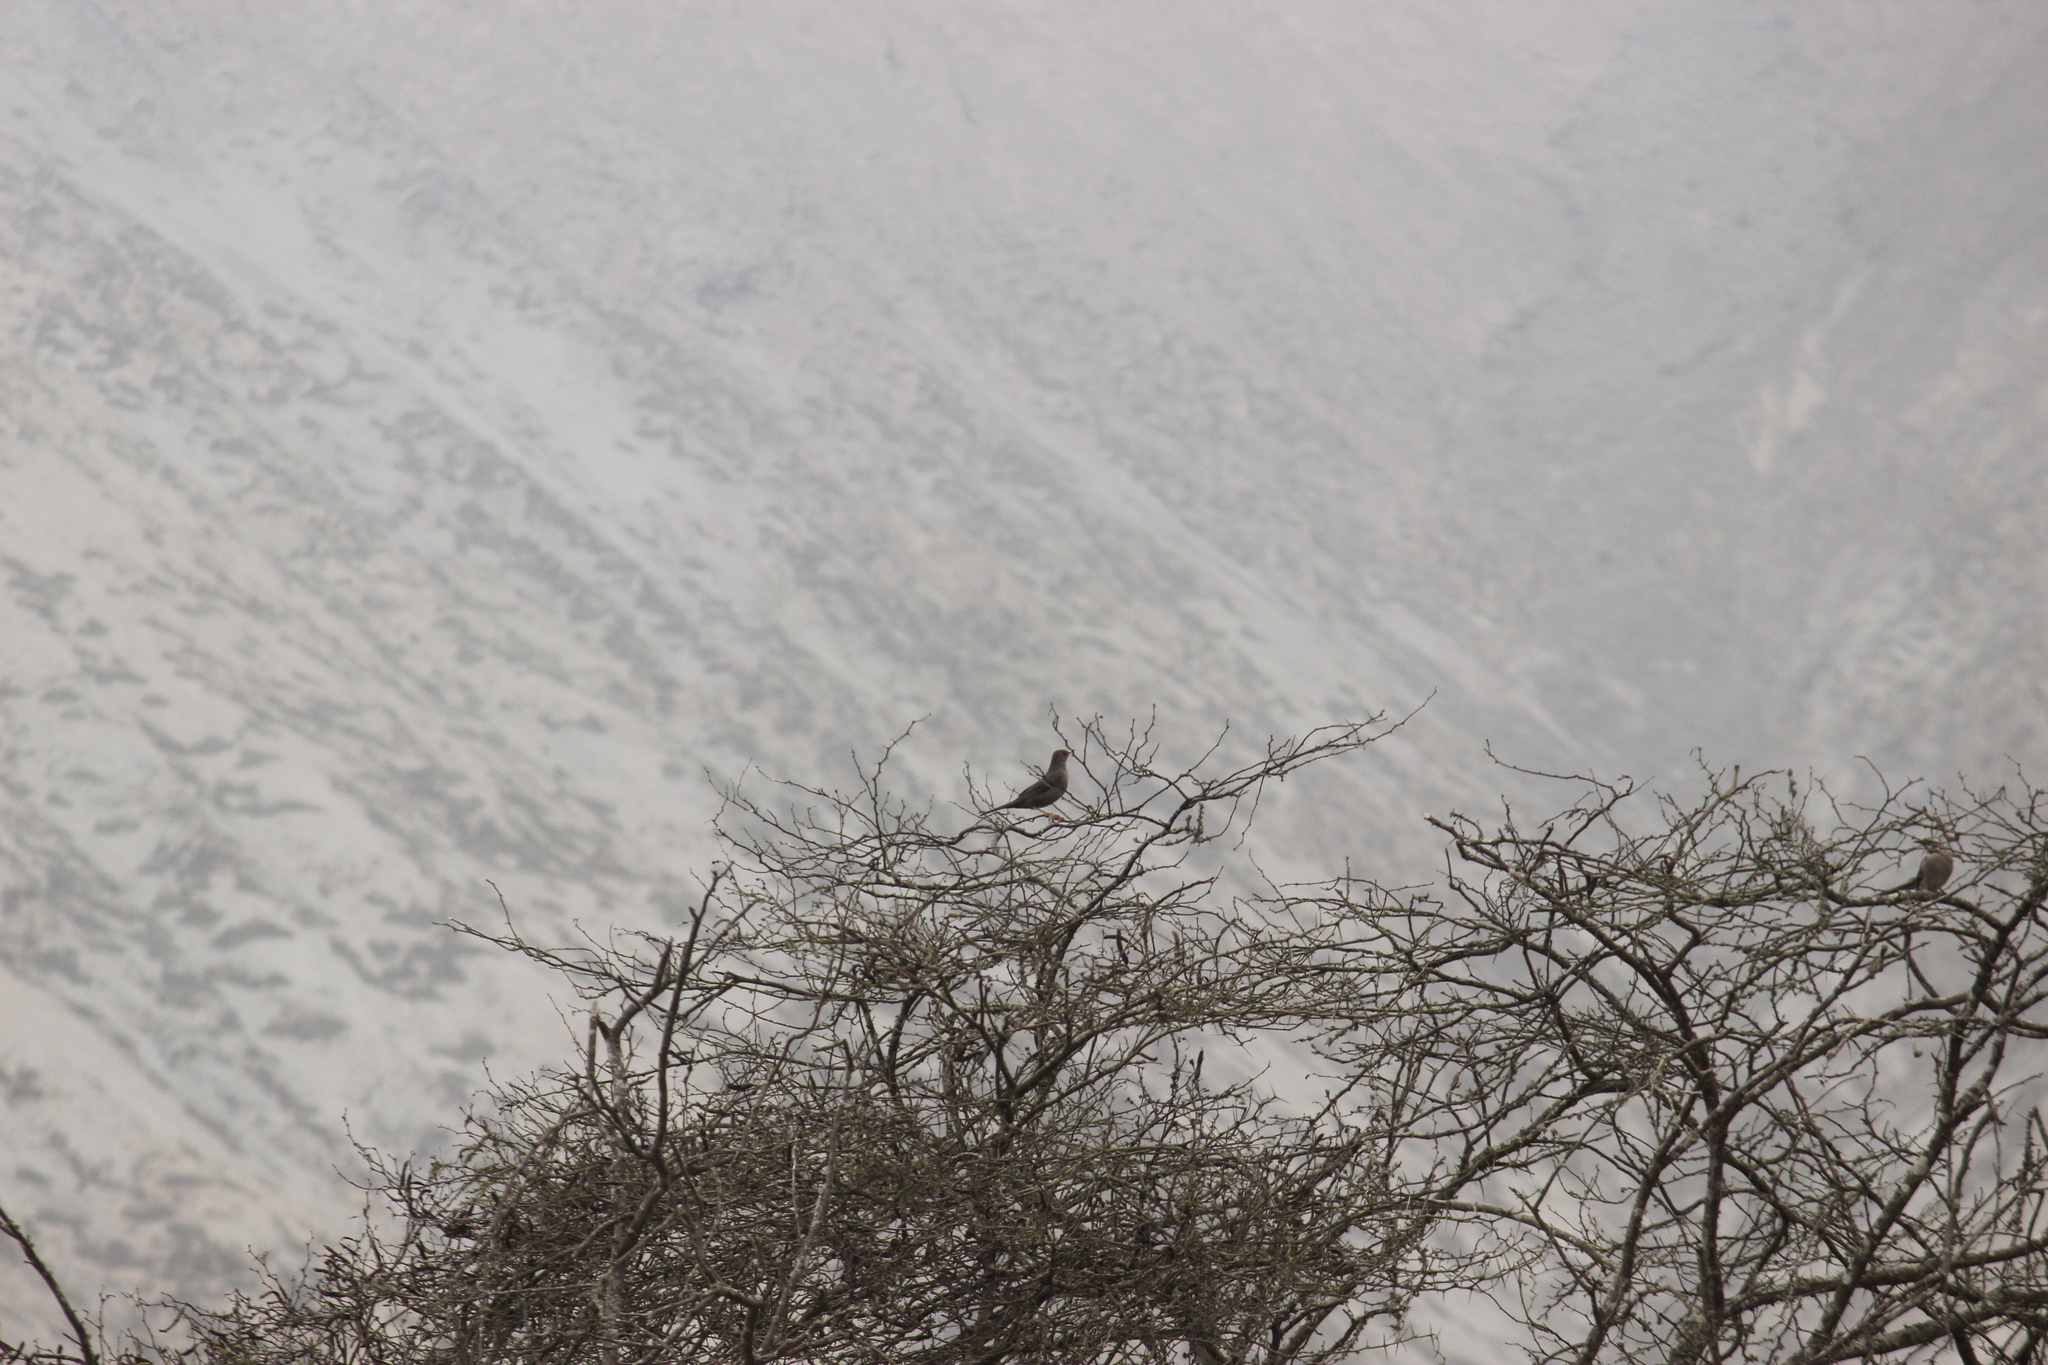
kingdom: Animalia
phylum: Chordata
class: Aves
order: Passeriformes
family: Turdidae
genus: Turdus
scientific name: Turdus chiguanco
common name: Chiguanco thrush
